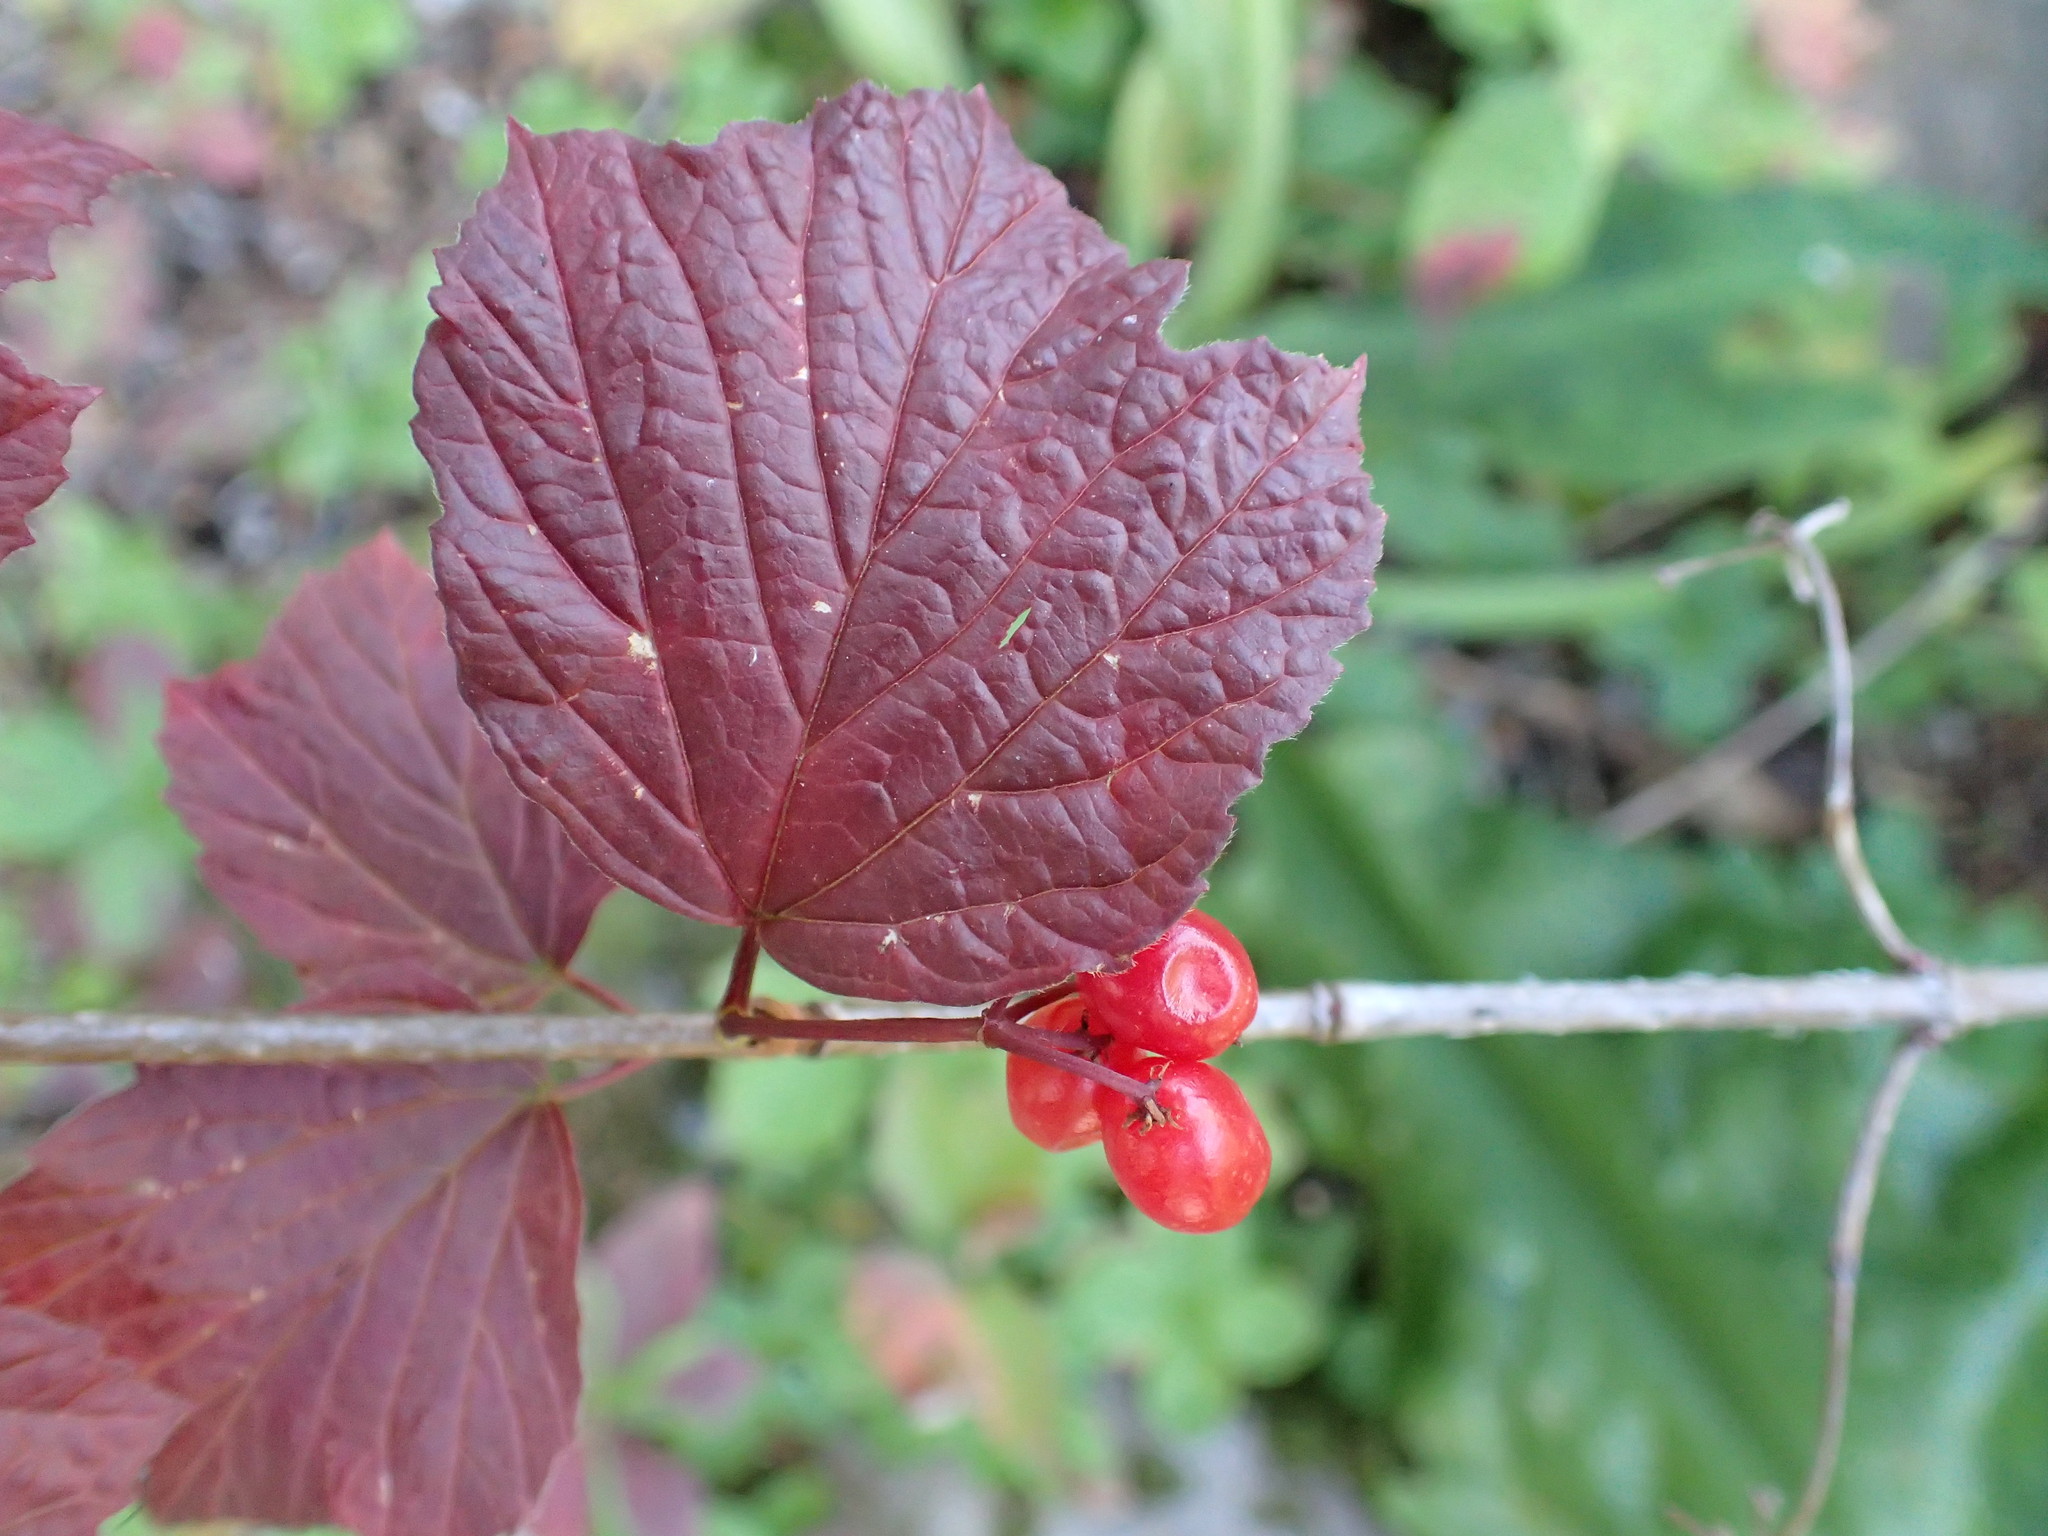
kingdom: Plantae
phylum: Tracheophyta
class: Magnoliopsida
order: Dipsacales
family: Viburnaceae
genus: Viburnum
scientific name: Viburnum edule
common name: Mooseberry
